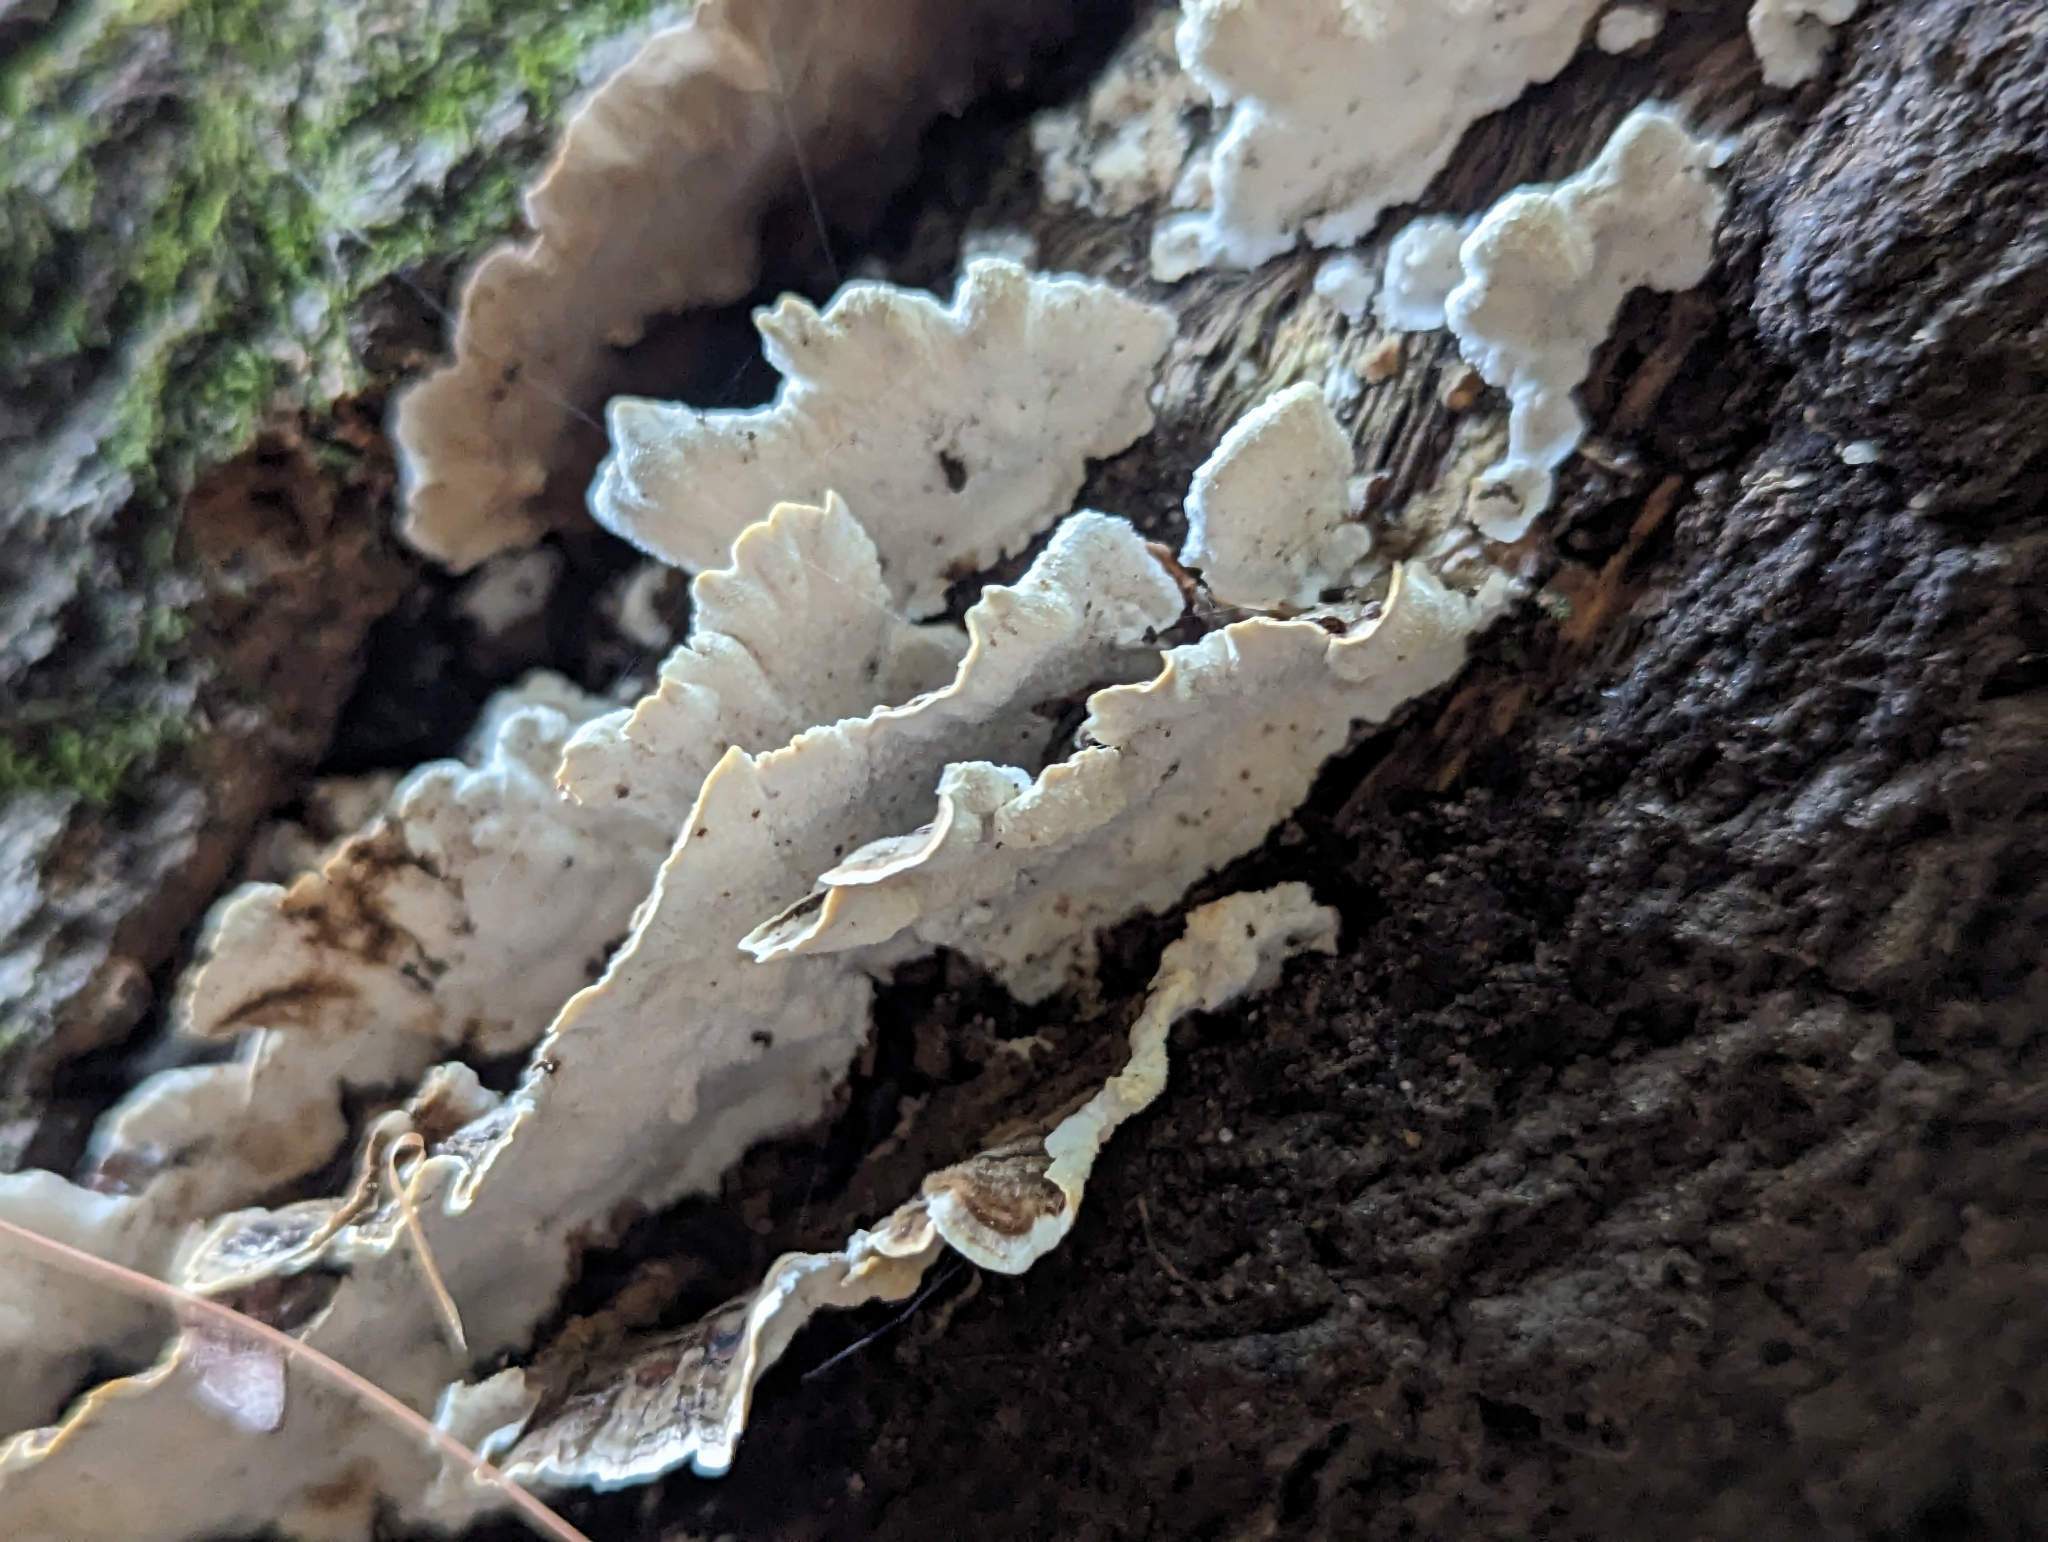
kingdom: Fungi
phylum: Basidiomycota
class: Agaricomycetes
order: Polyporales
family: Polyporaceae
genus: Trametes
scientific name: Trametes versicolor
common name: Turkeytail
